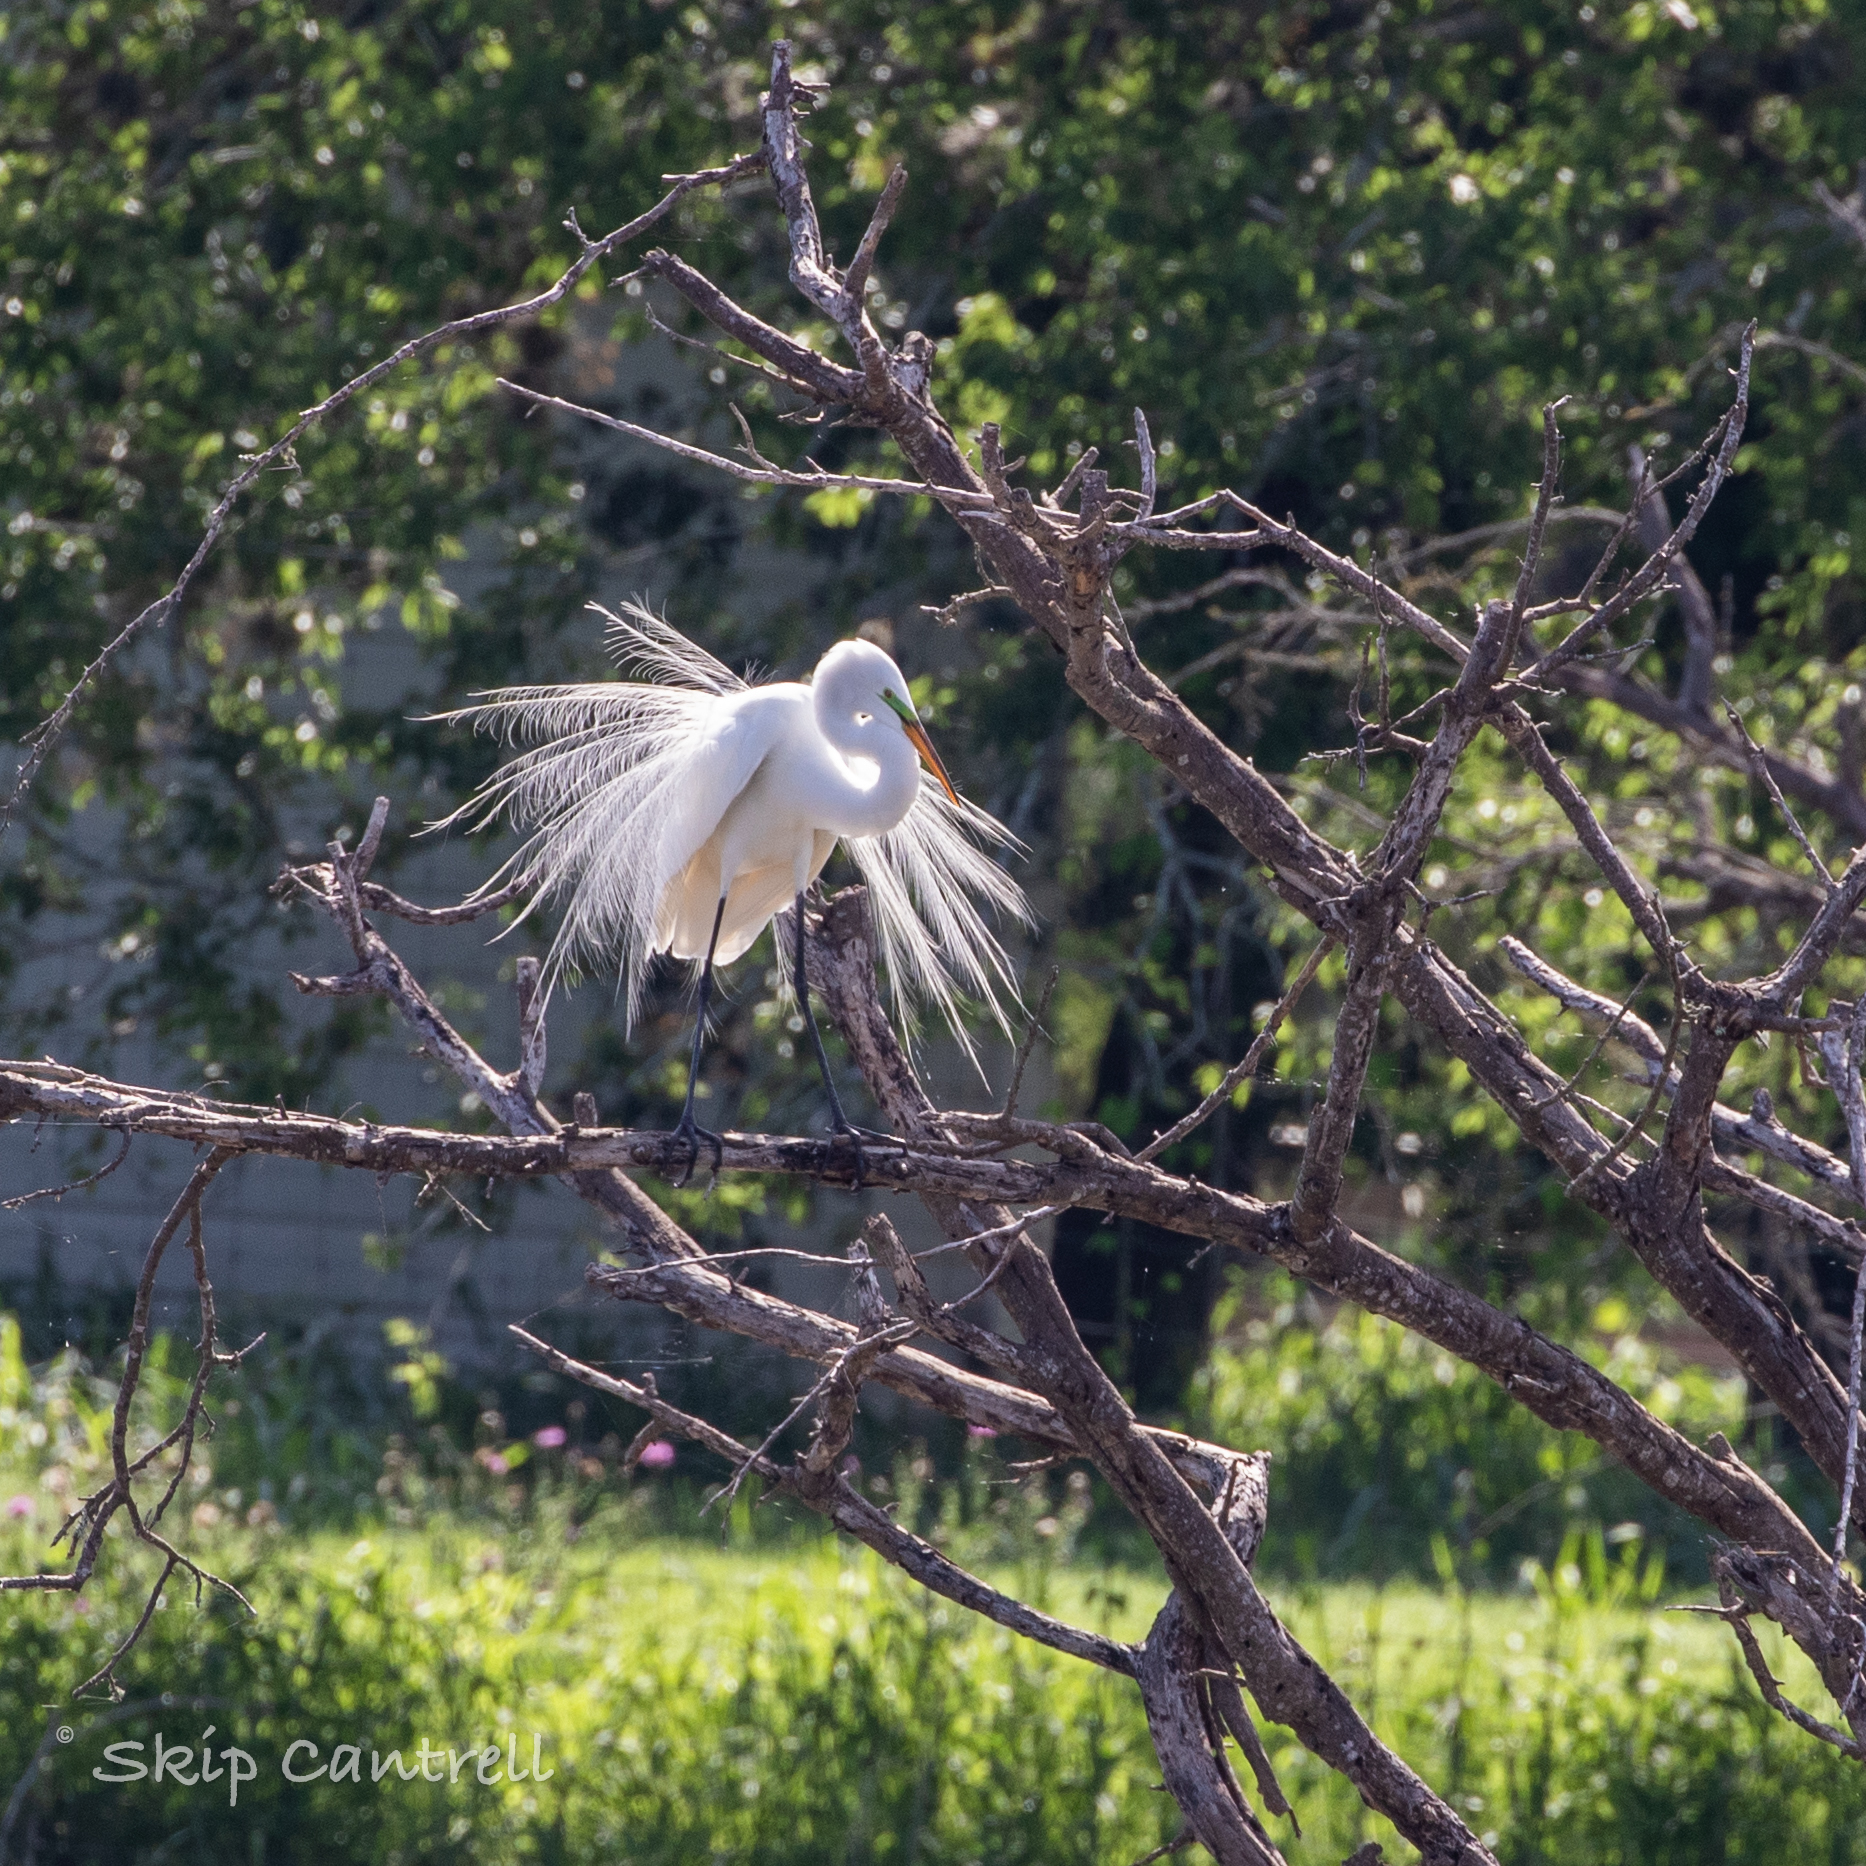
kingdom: Animalia
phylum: Chordata
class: Aves
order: Pelecaniformes
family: Ardeidae
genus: Ardea
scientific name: Ardea alba
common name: Great egret
